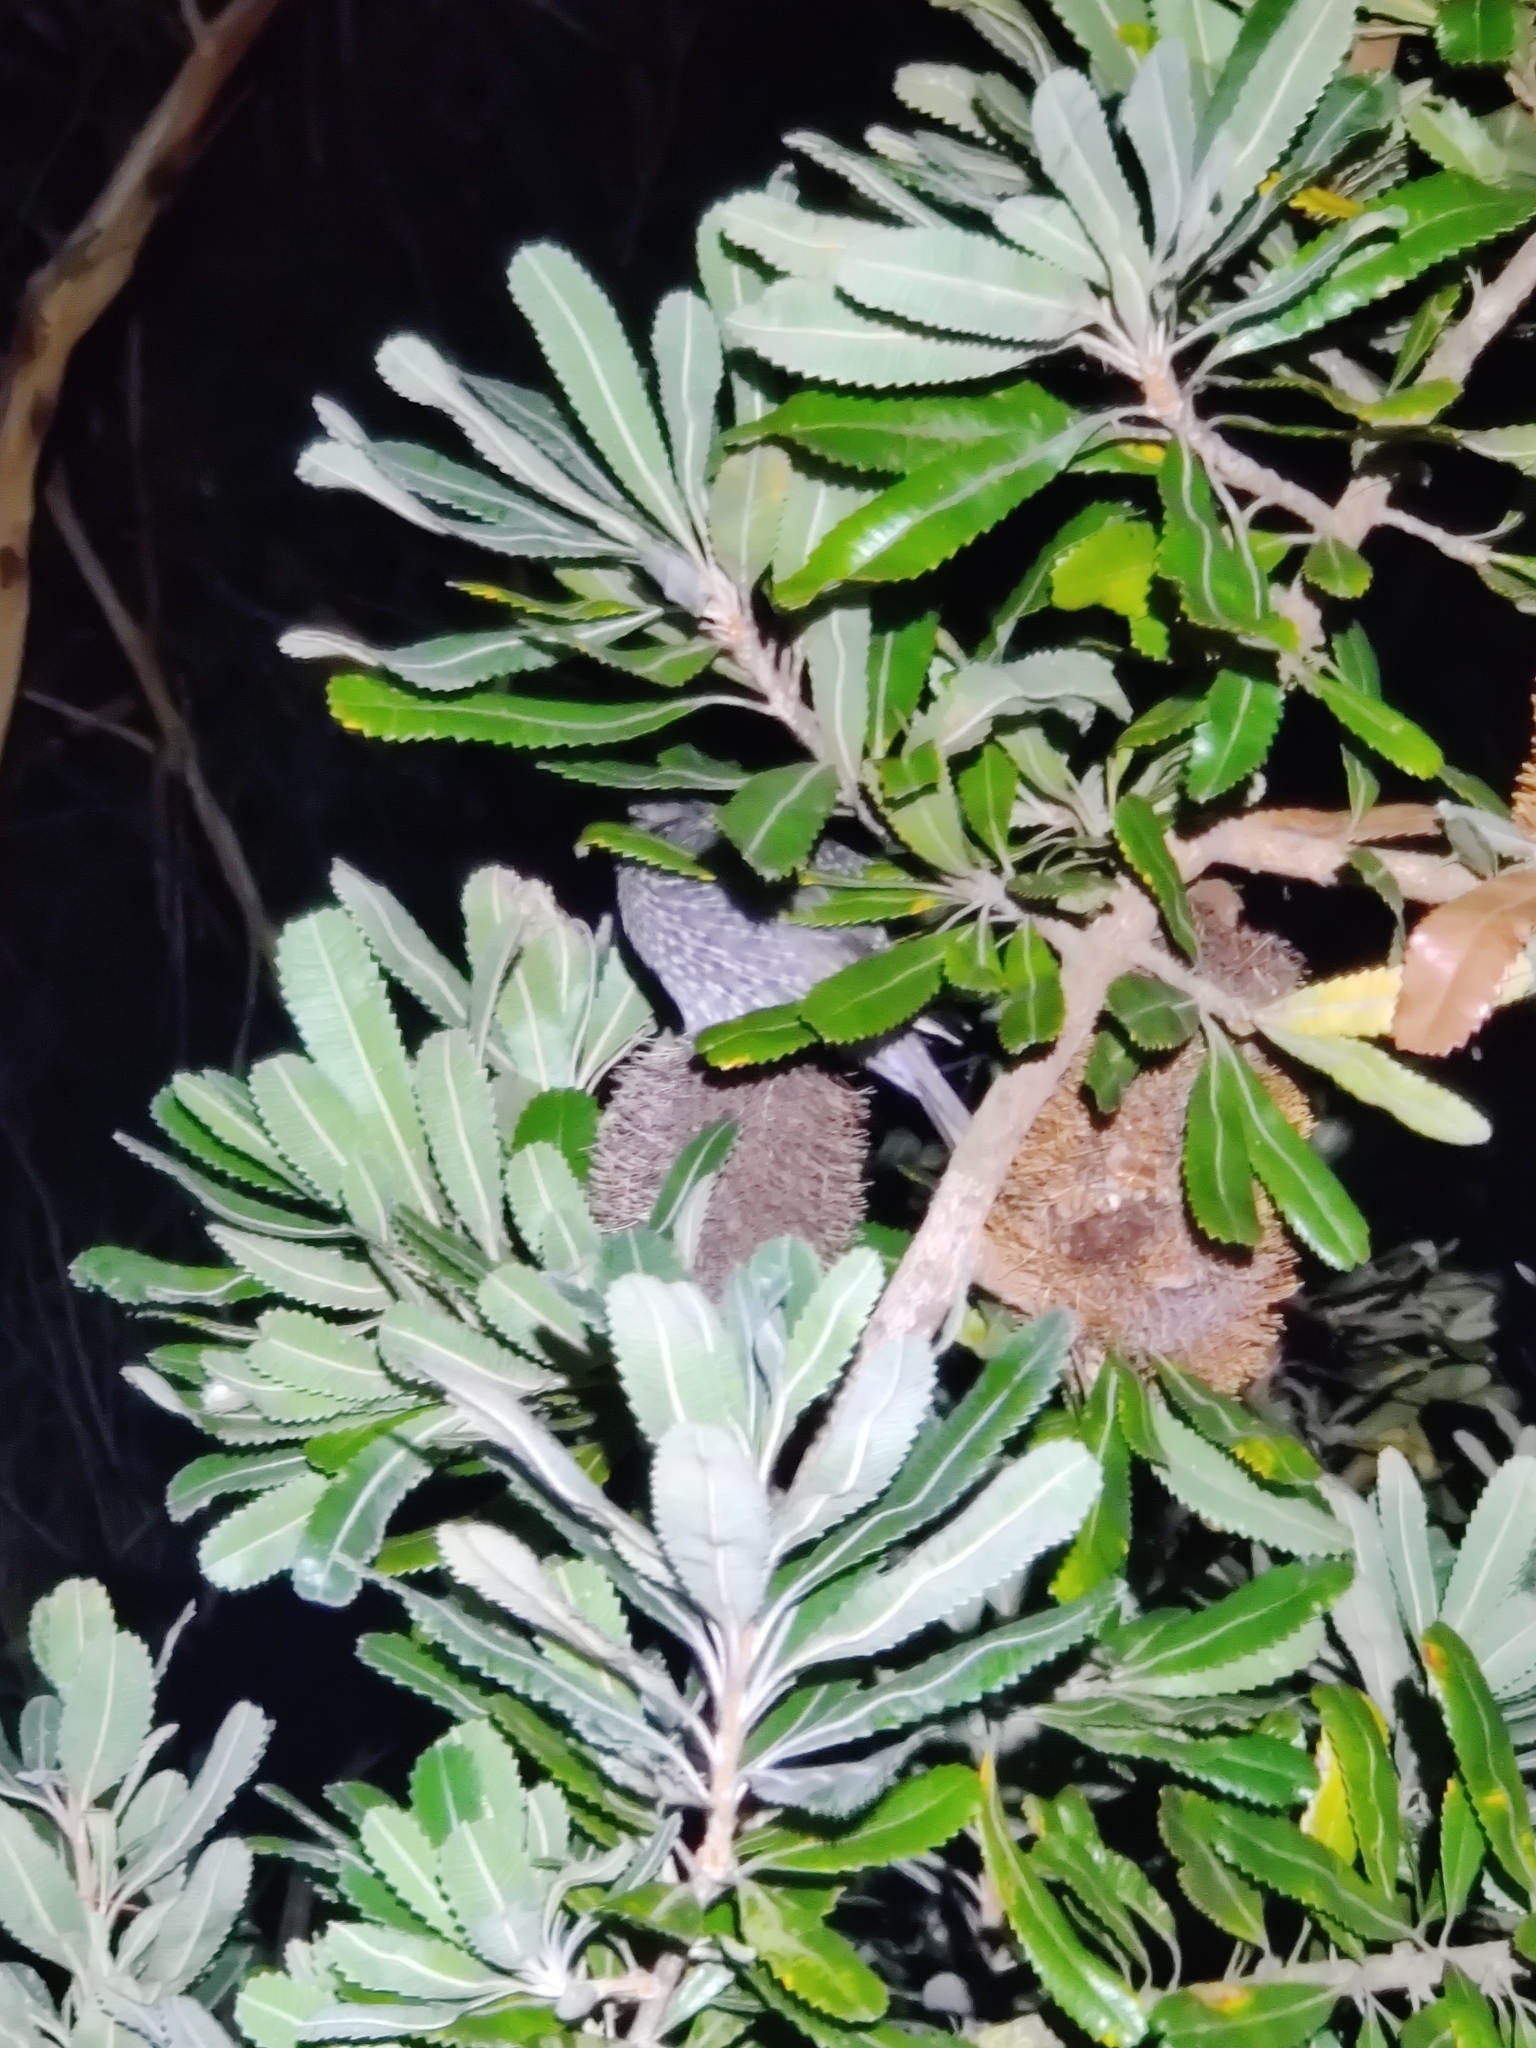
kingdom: Animalia
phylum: Chordata
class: Aves
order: Passeriformes
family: Meliphagidae
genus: Anthochaera
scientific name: Anthochaera chrysoptera
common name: Little wattlebird
